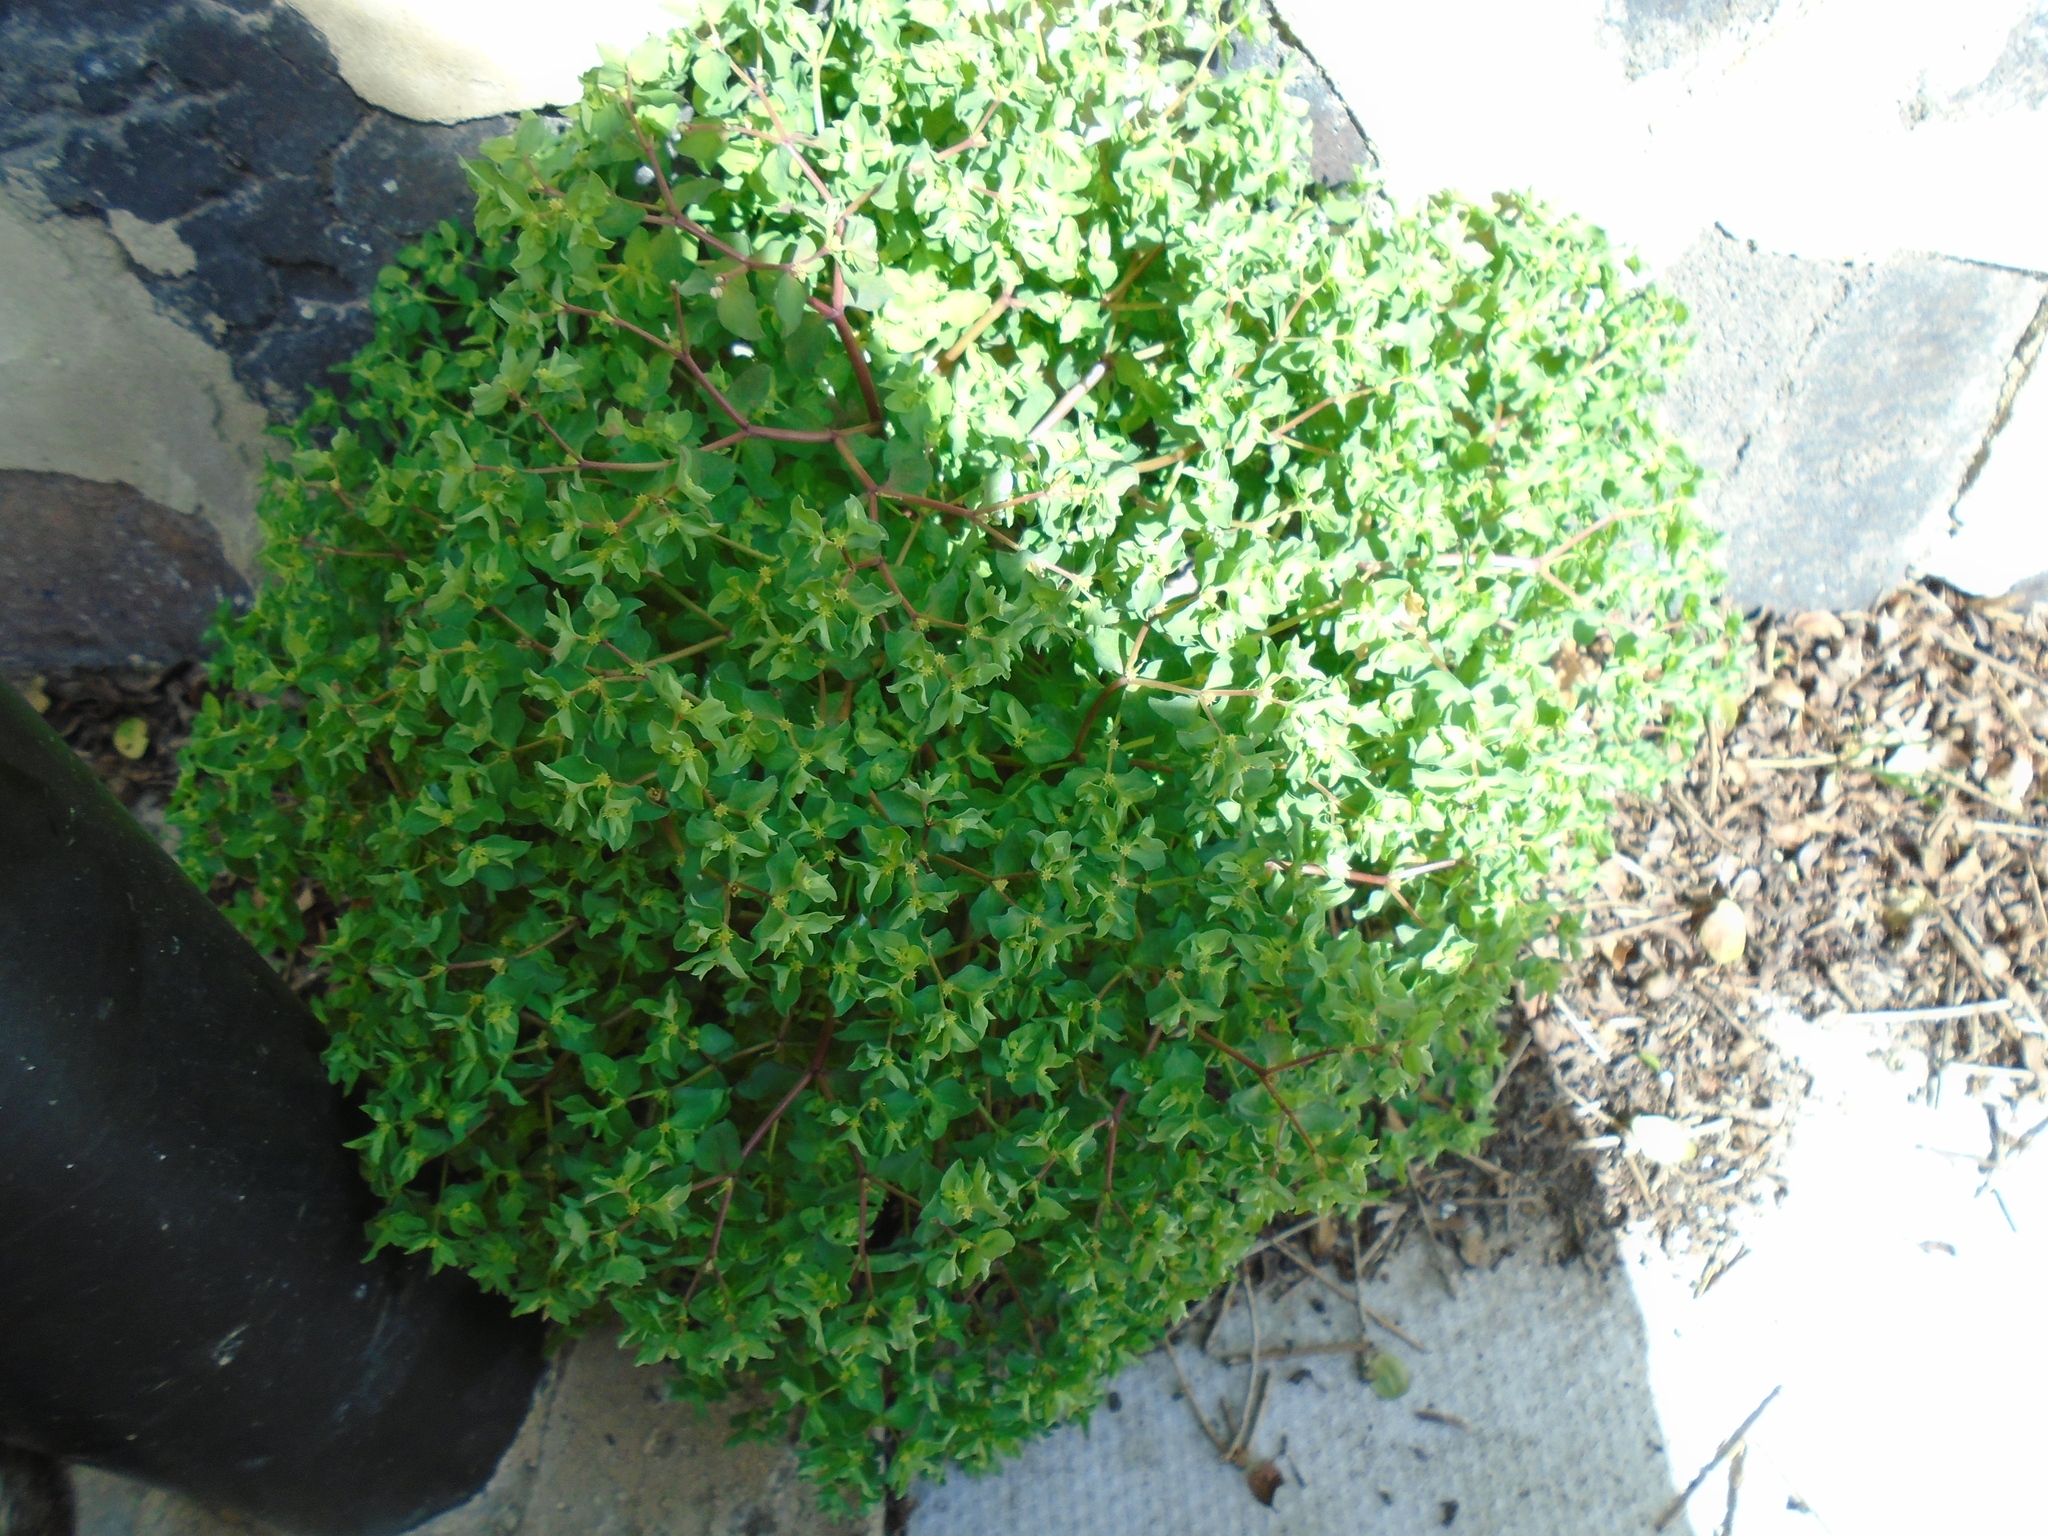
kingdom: Plantae
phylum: Tracheophyta
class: Magnoliopsida
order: Malpighiales
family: Euphorbiaceae
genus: Euphorbia
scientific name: Euphorbia peplus
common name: Petty spurge
